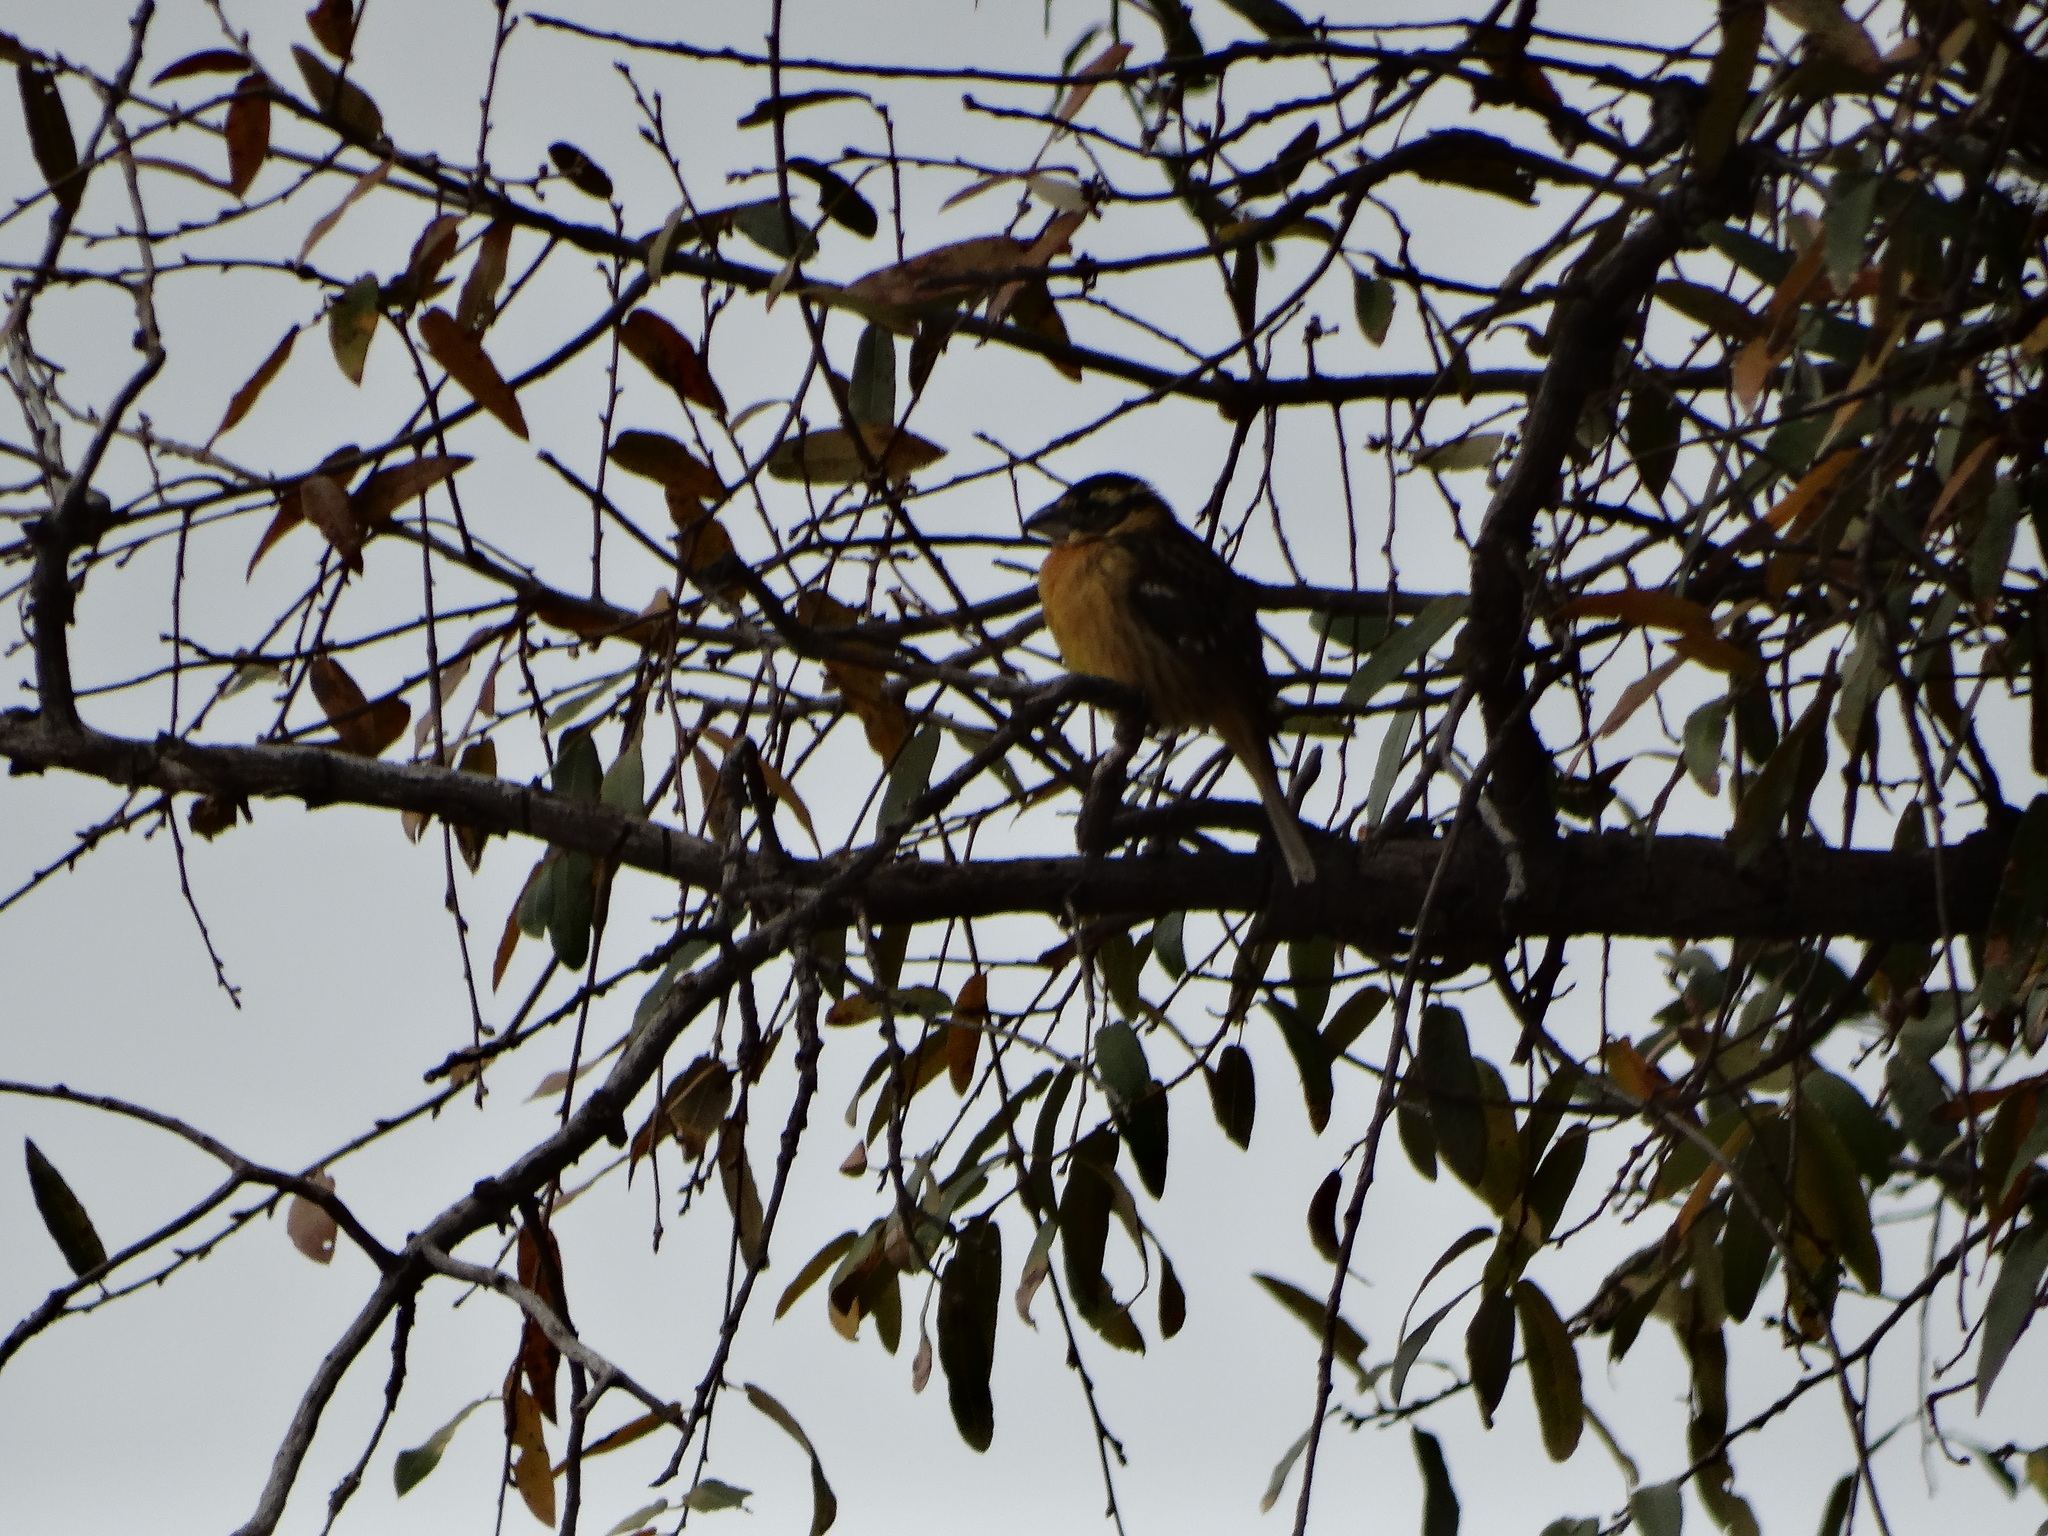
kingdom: Animalia
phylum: Chordata
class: Aves
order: Passeriformes
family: Cardinalidae
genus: Pheucticus
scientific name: Pheucticus melanocephalus
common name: Black-headed grosbeak
